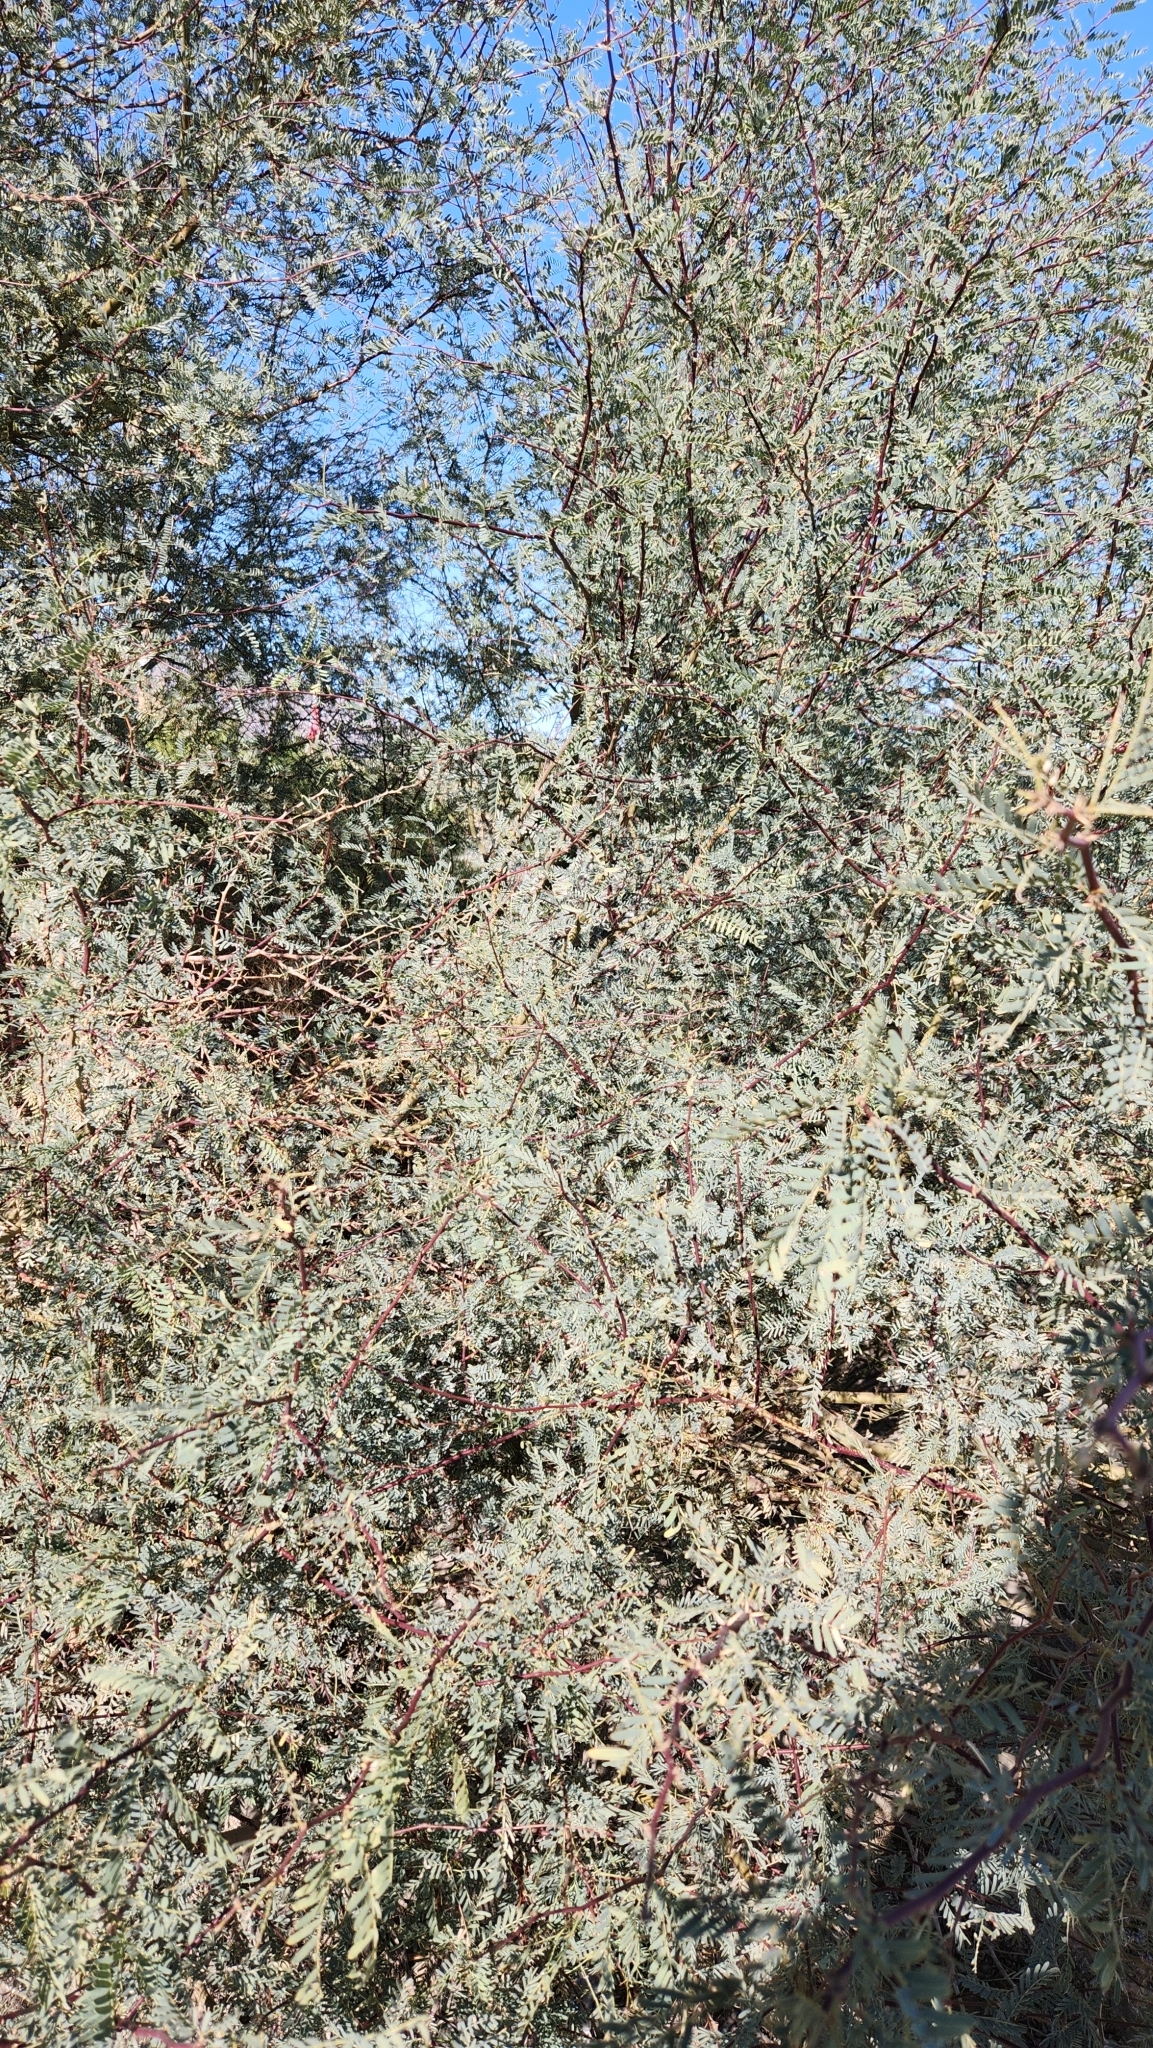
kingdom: Plantae
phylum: Tracheophyta
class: Magnoliopsida
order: Fabales
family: Fabaceae
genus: Prosopis
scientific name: Prosopis pubescens
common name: Screw-bean
